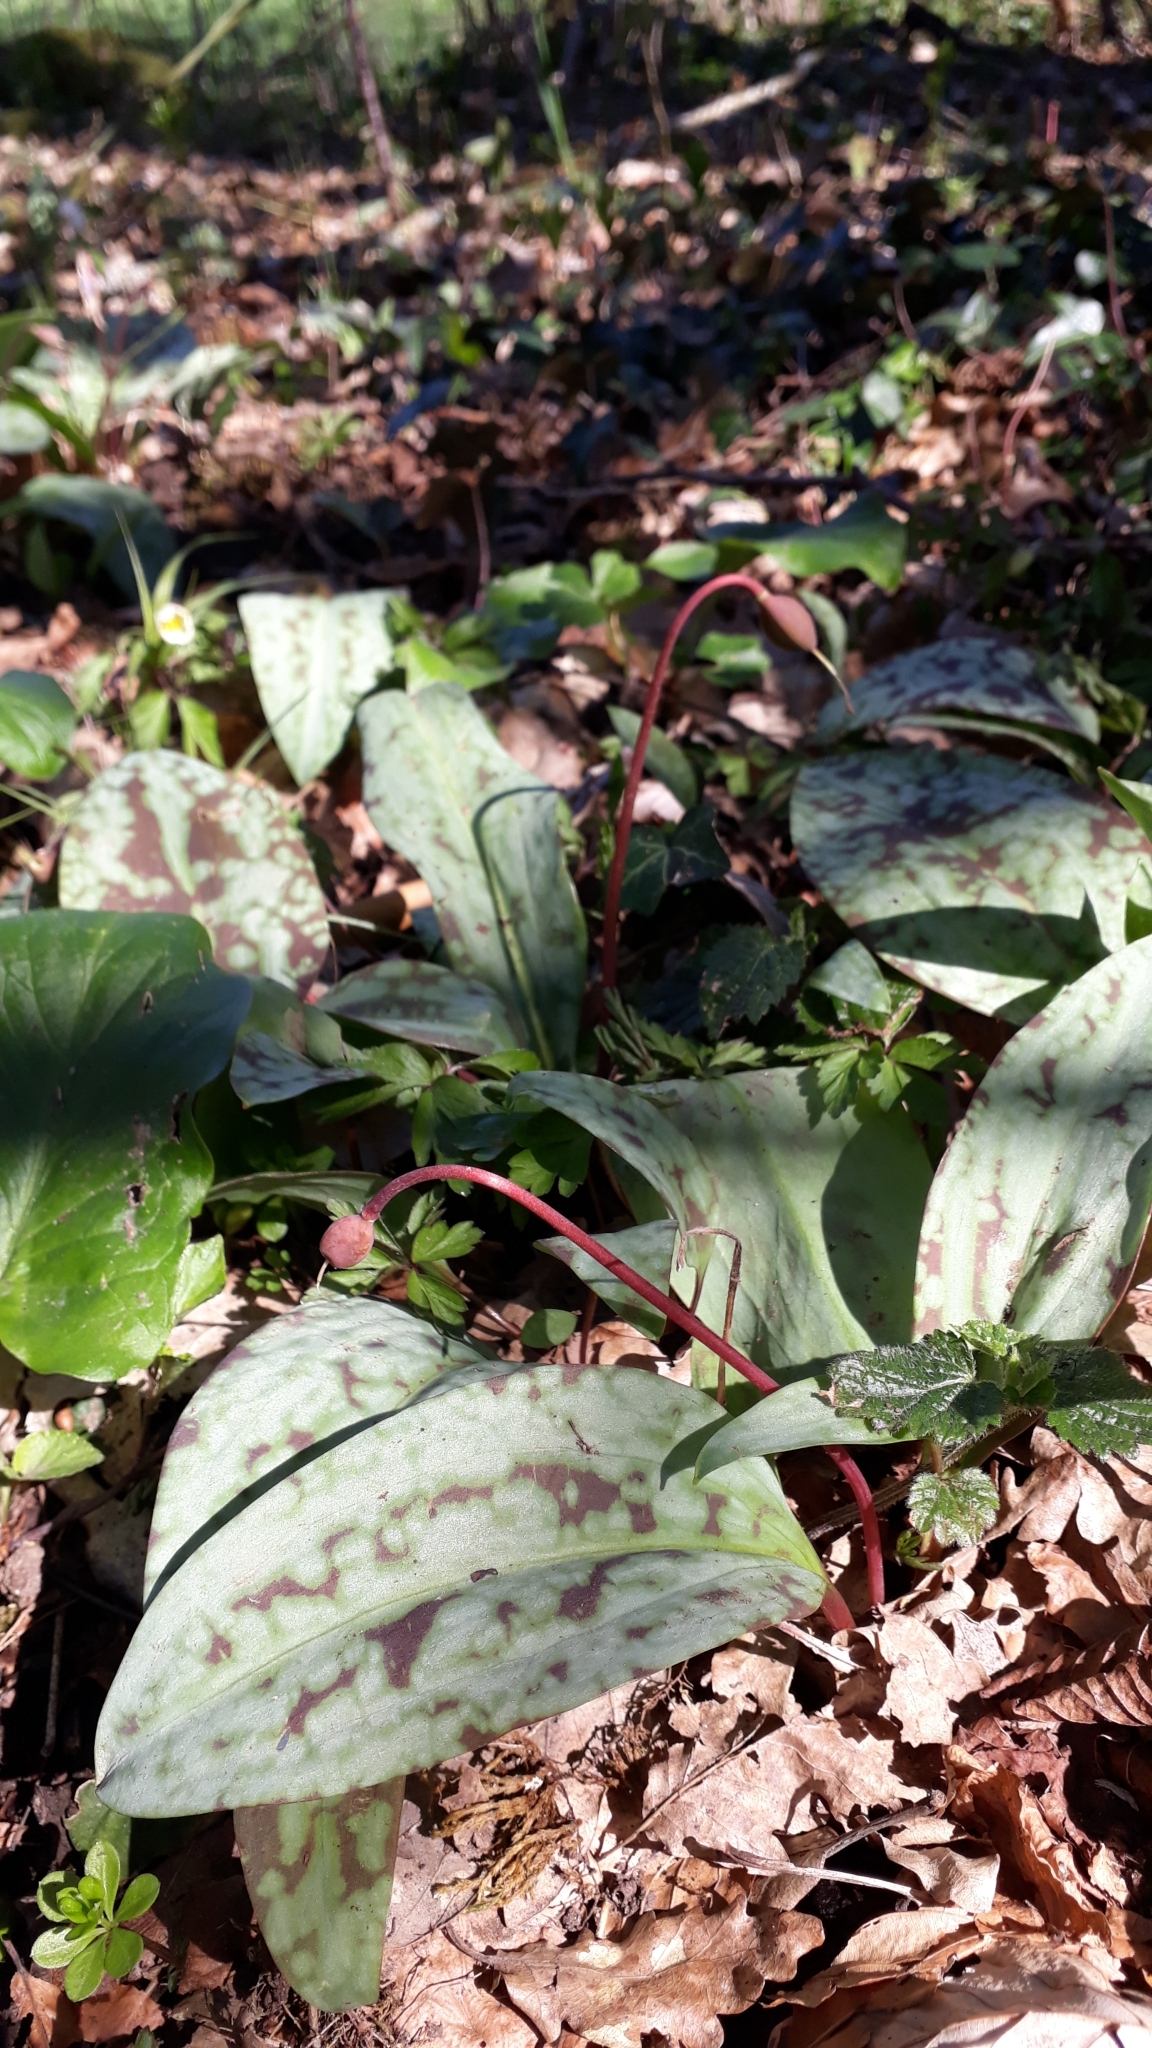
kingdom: Plantae
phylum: Tracheophyta
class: Liliopsida
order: Liliales
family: Liliaceae
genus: Erythronium
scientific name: Erythronium dens-canis
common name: Dog's-tooth-violet
